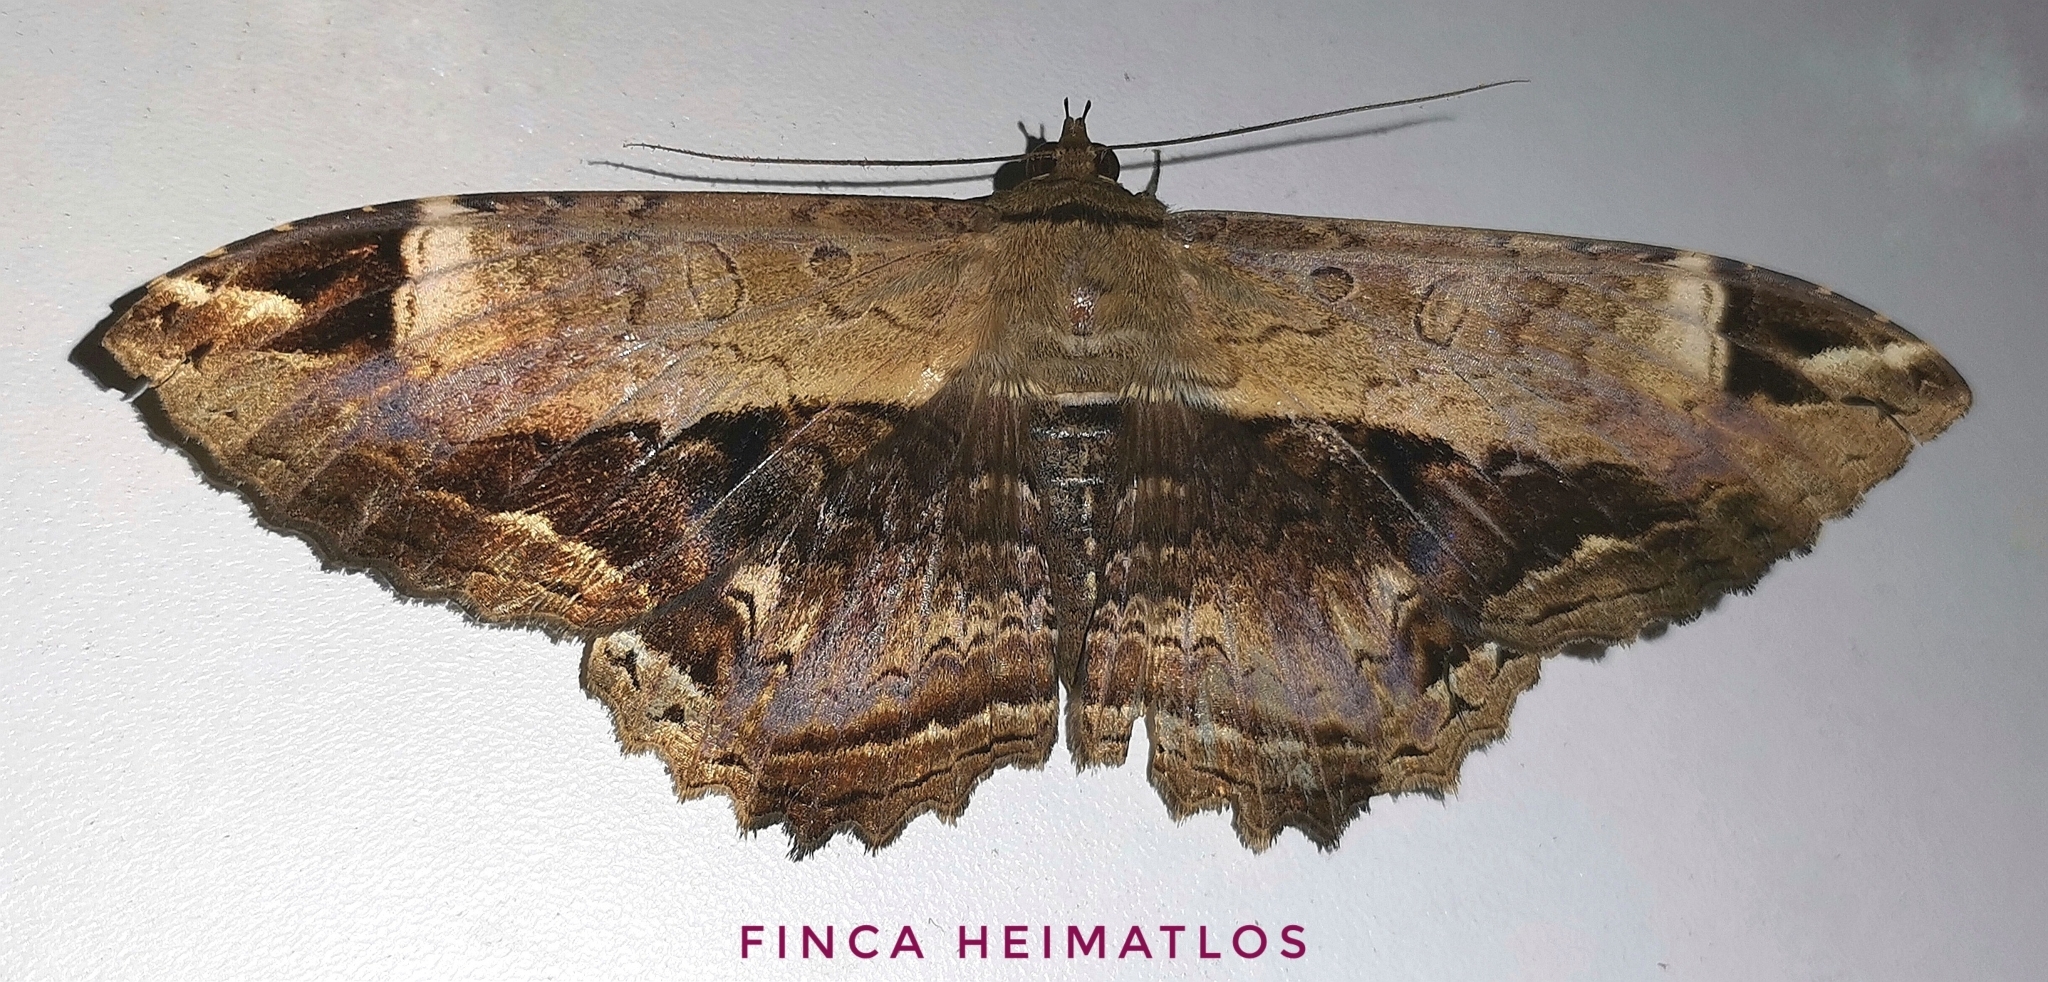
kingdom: Animalia
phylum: Arthropoda
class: Insecta
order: Lepidoptera
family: Noctuidae
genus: Ronania
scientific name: Ronania
